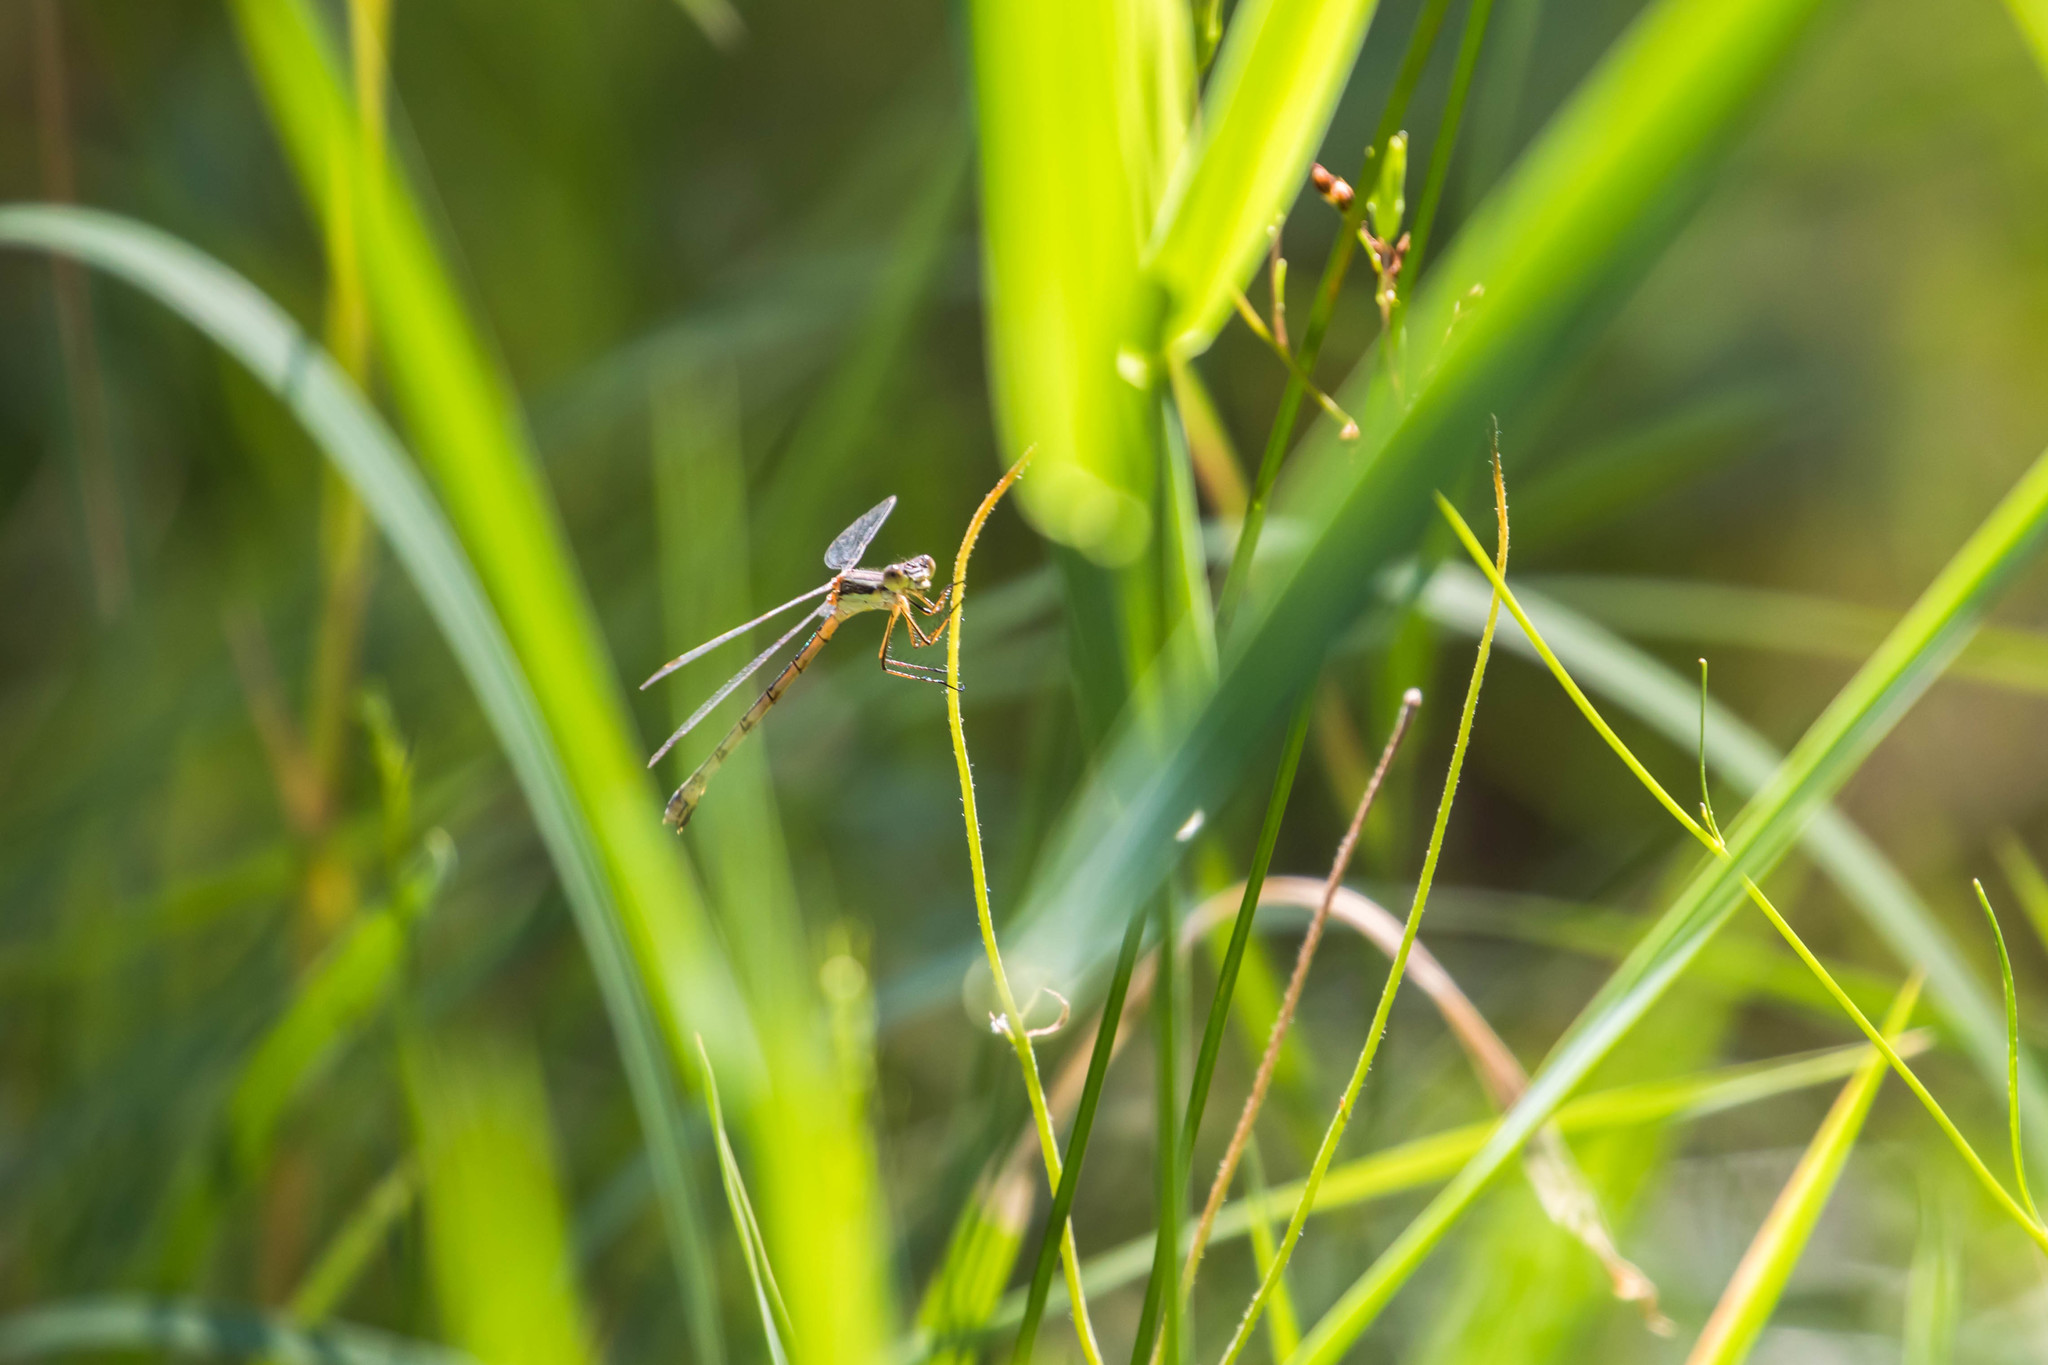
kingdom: Animalia
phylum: Arthropoda
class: Insecta
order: Odonata
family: Lestidae
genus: Lestes
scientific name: Lestes forcipatus
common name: Sweetflag spreadwing
